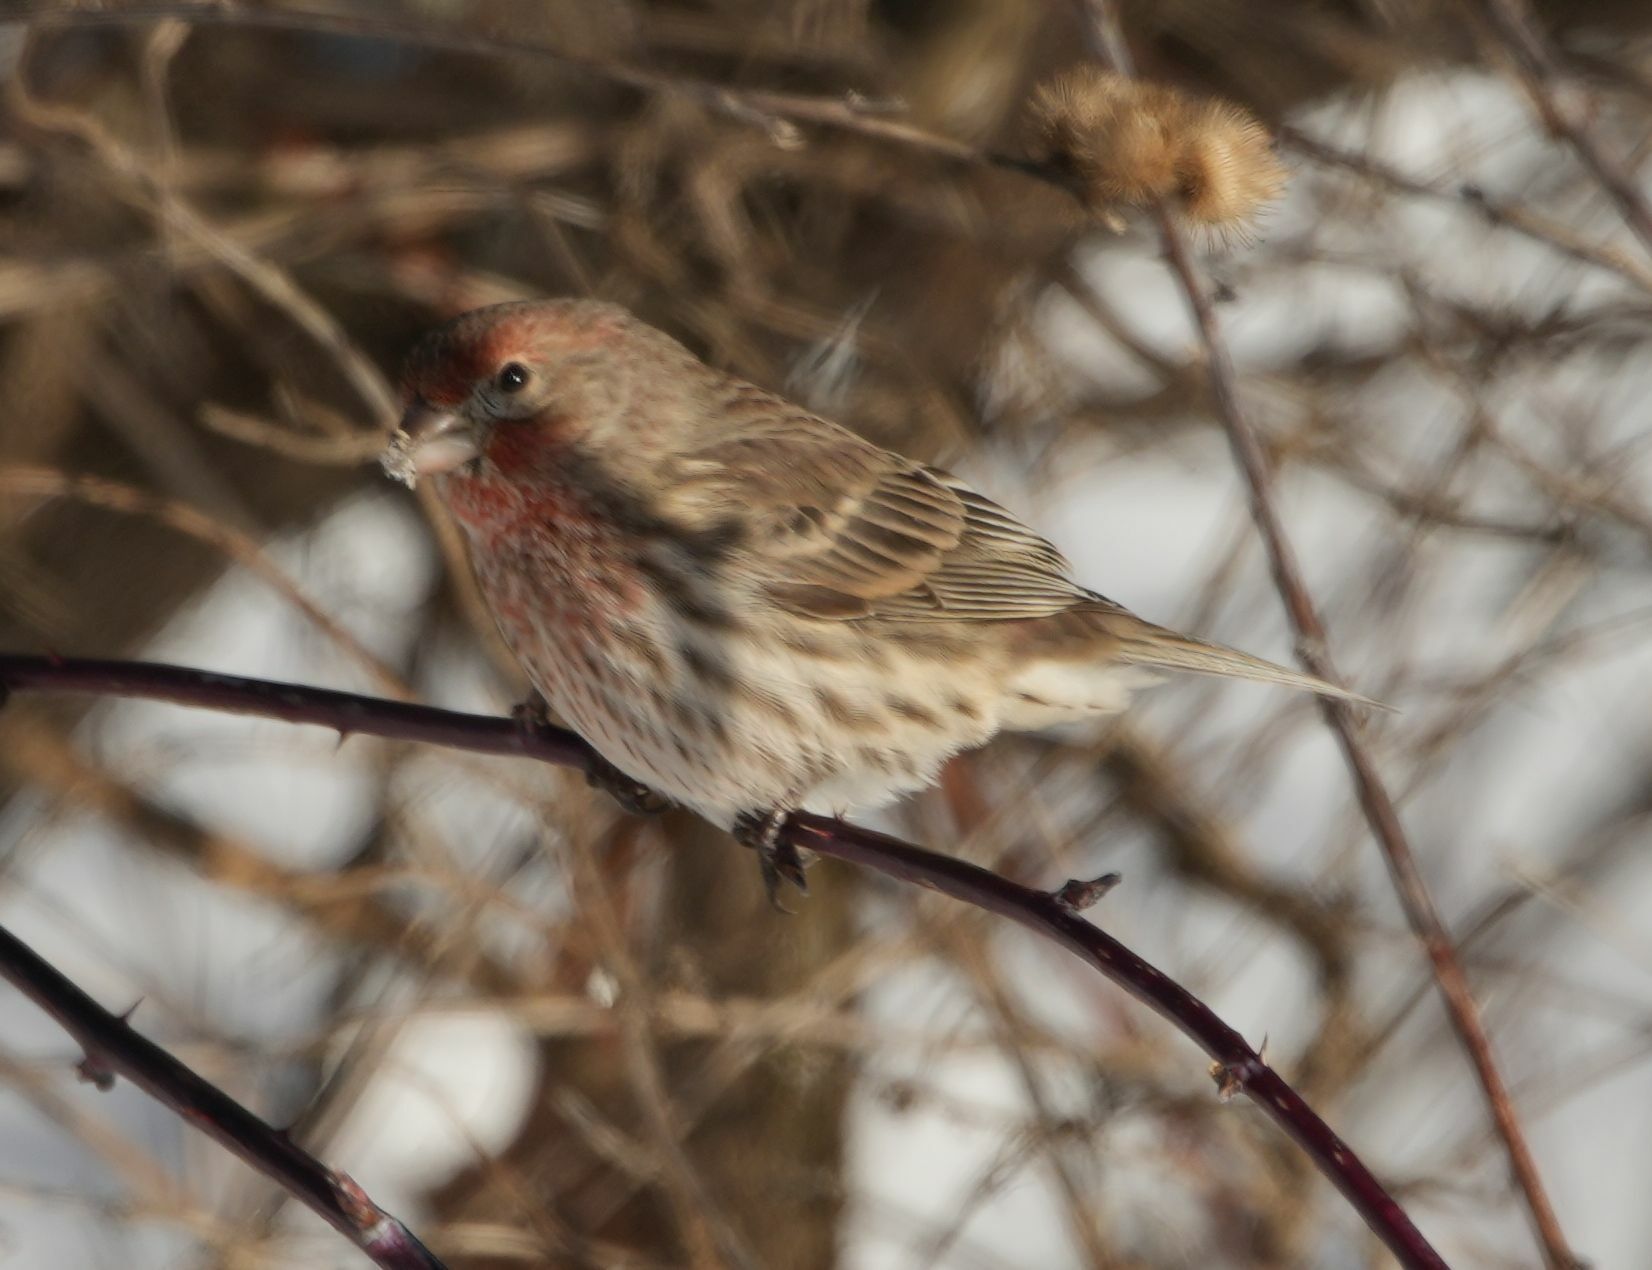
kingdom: Animalia
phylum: Chordata
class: Aves
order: Passeriformes
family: Fringillidae
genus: Haemorhous
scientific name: Haemorhous mexicanus
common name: House finch
